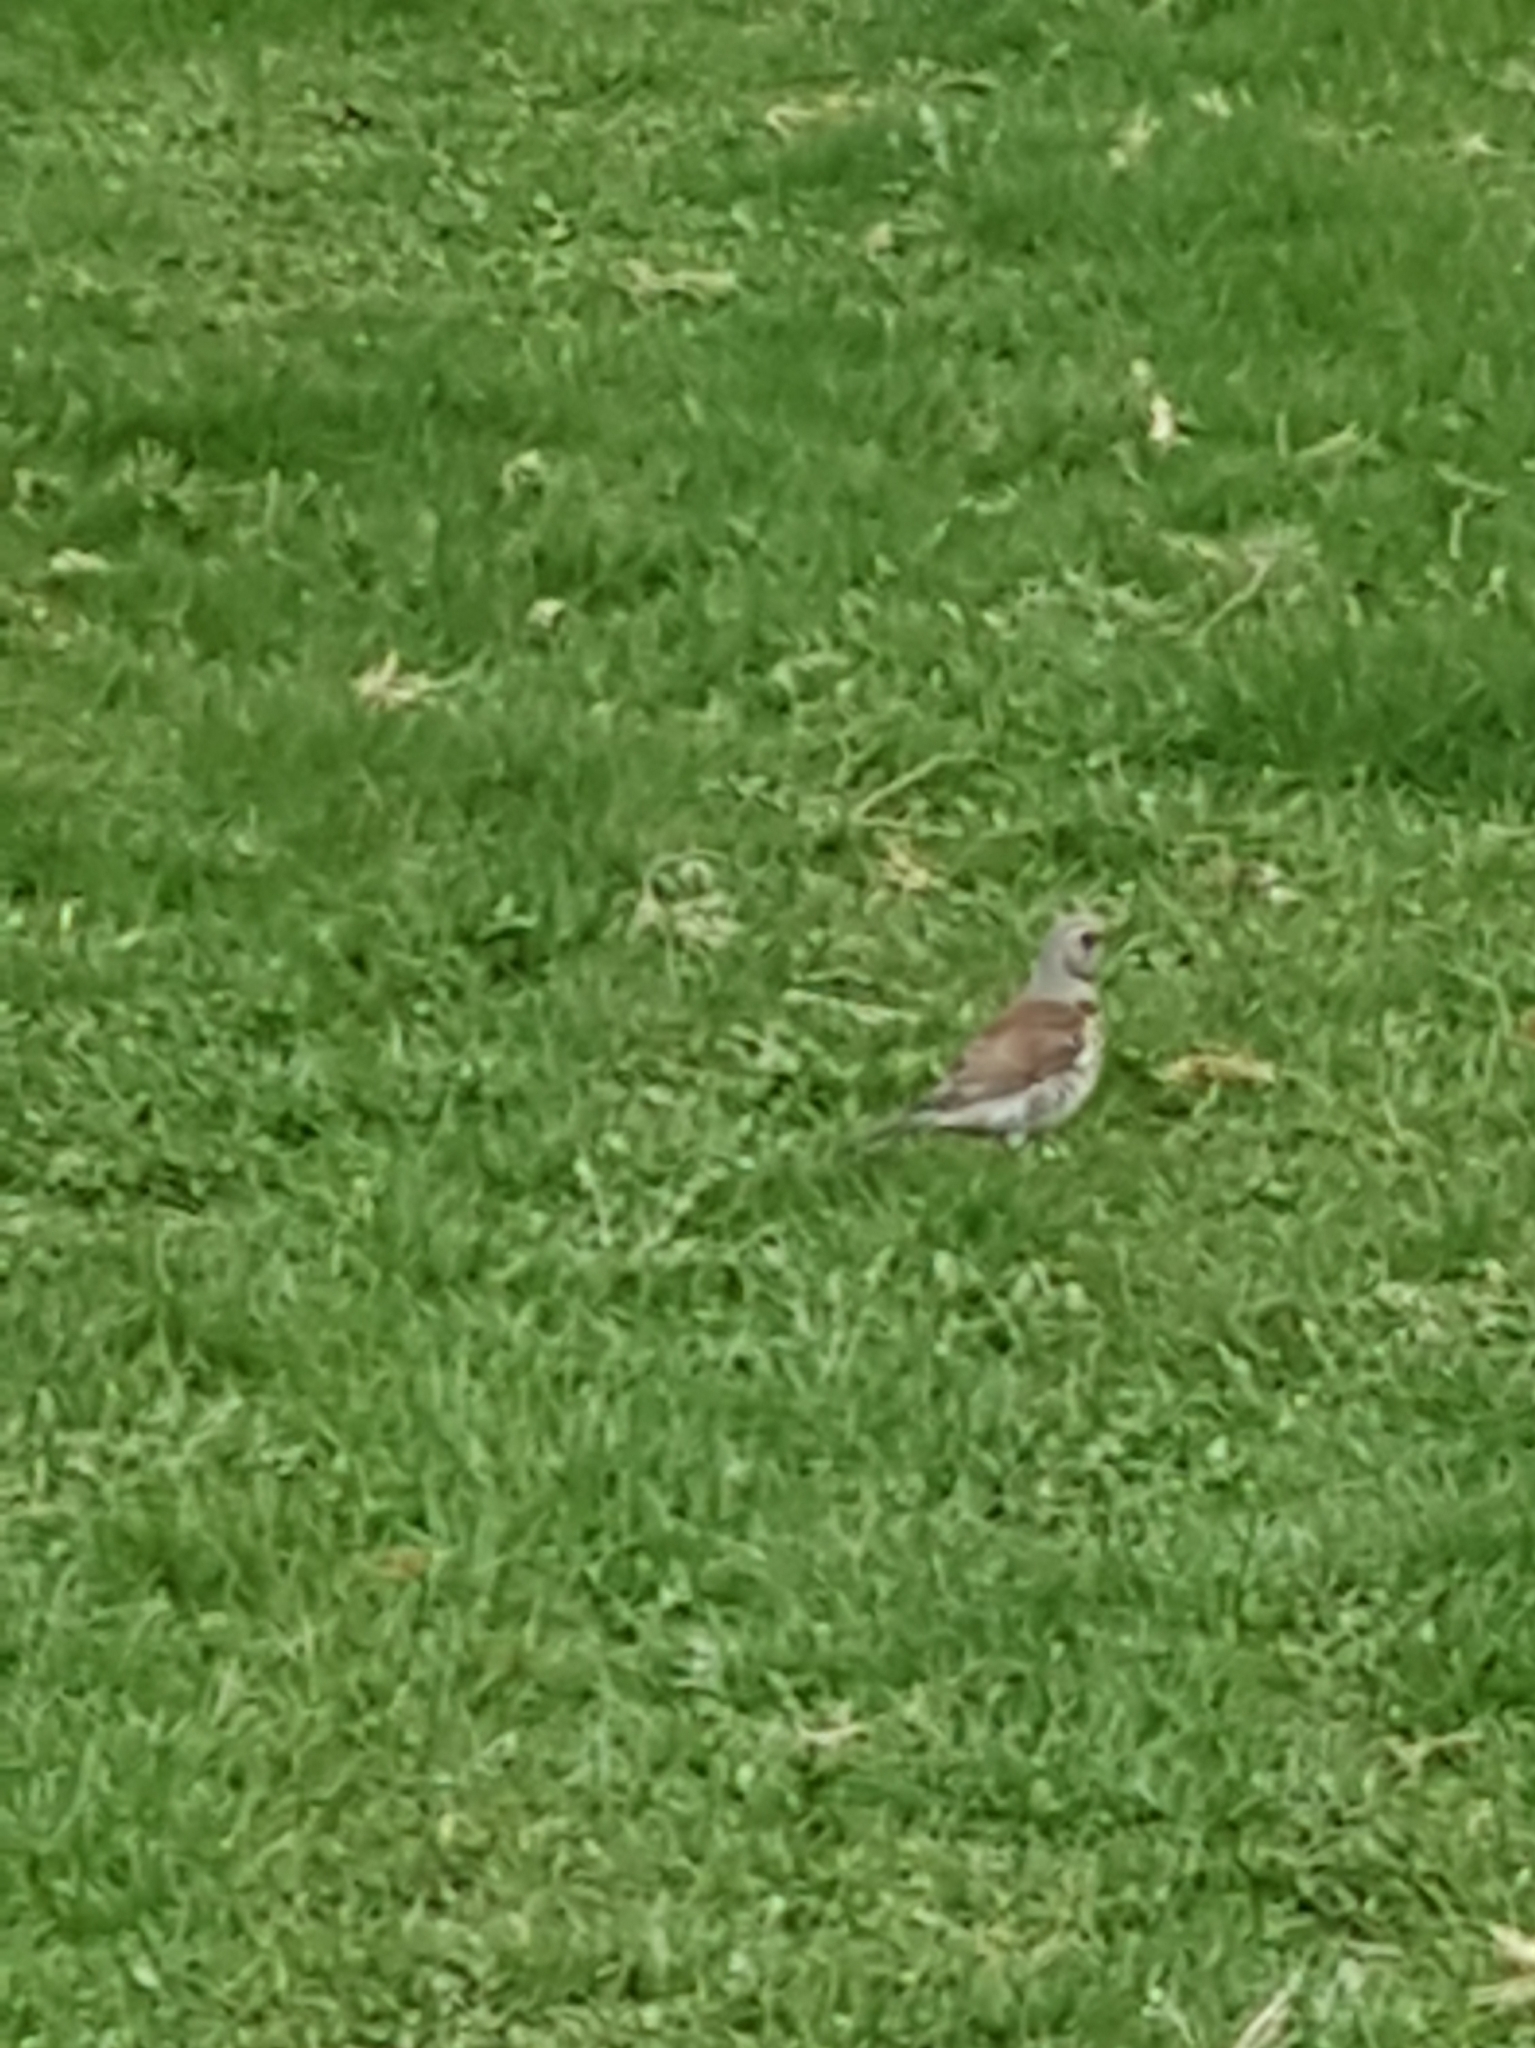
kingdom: Animalia
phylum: Chordata
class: Aves
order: Passeriformes
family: Turdidae
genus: Turdus
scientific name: Turdus pilaris
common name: Fieldfare
